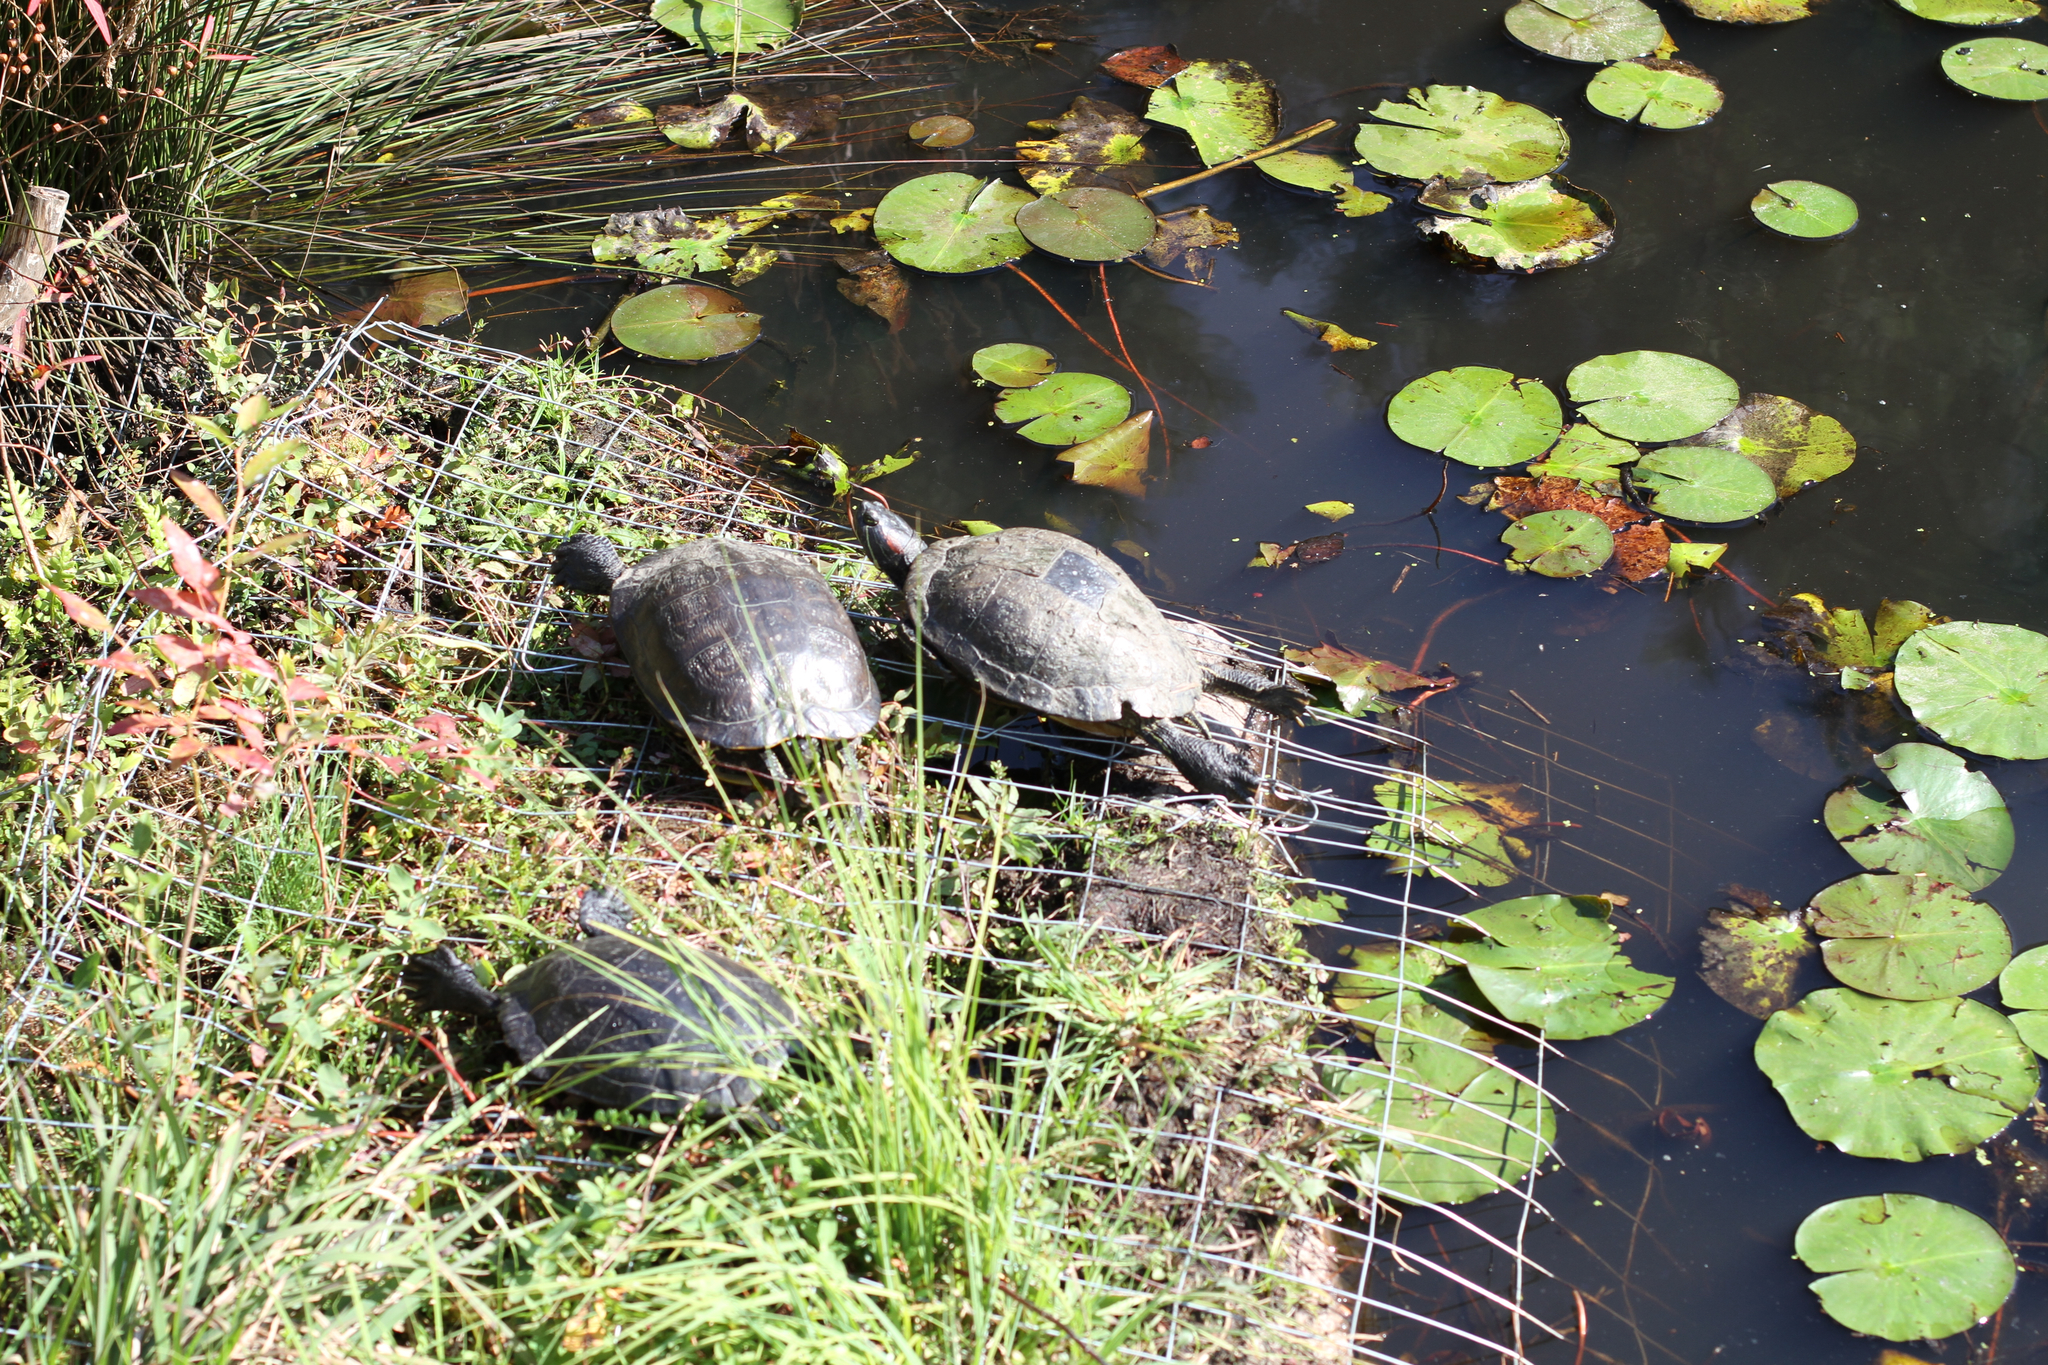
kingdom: Animalia
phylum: Chordata
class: Testudines
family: Emydidae
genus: Trachemys
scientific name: Trachemys scripta
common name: Slider
